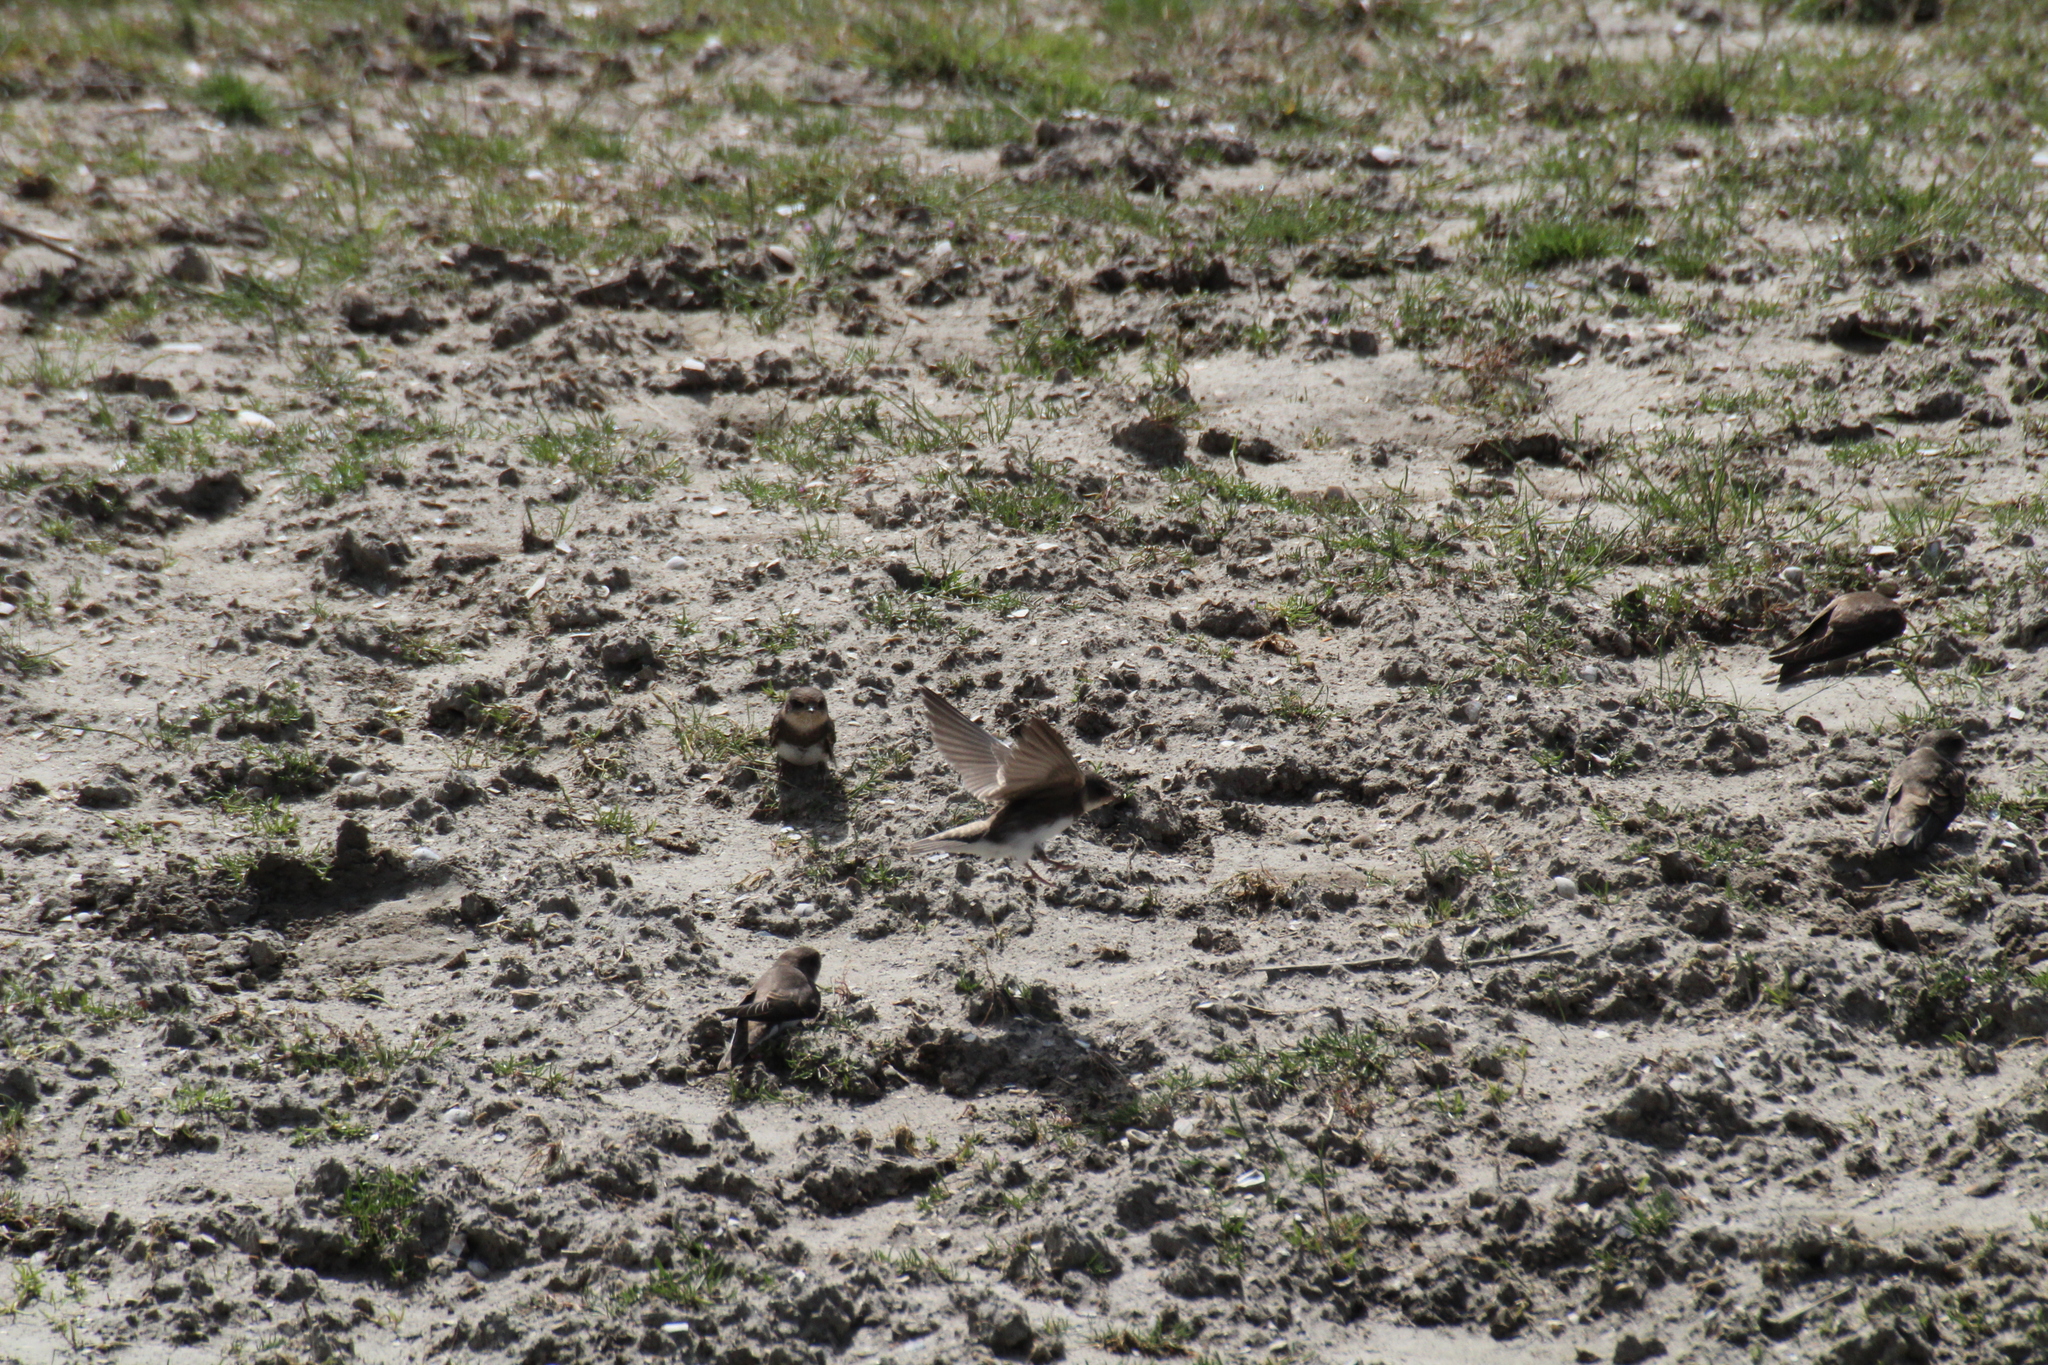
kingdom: Animalia
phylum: Chordata
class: Aves
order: Passeriformes
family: Hirundinidae
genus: Riparia
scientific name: Riparia riparia
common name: Sand martin
